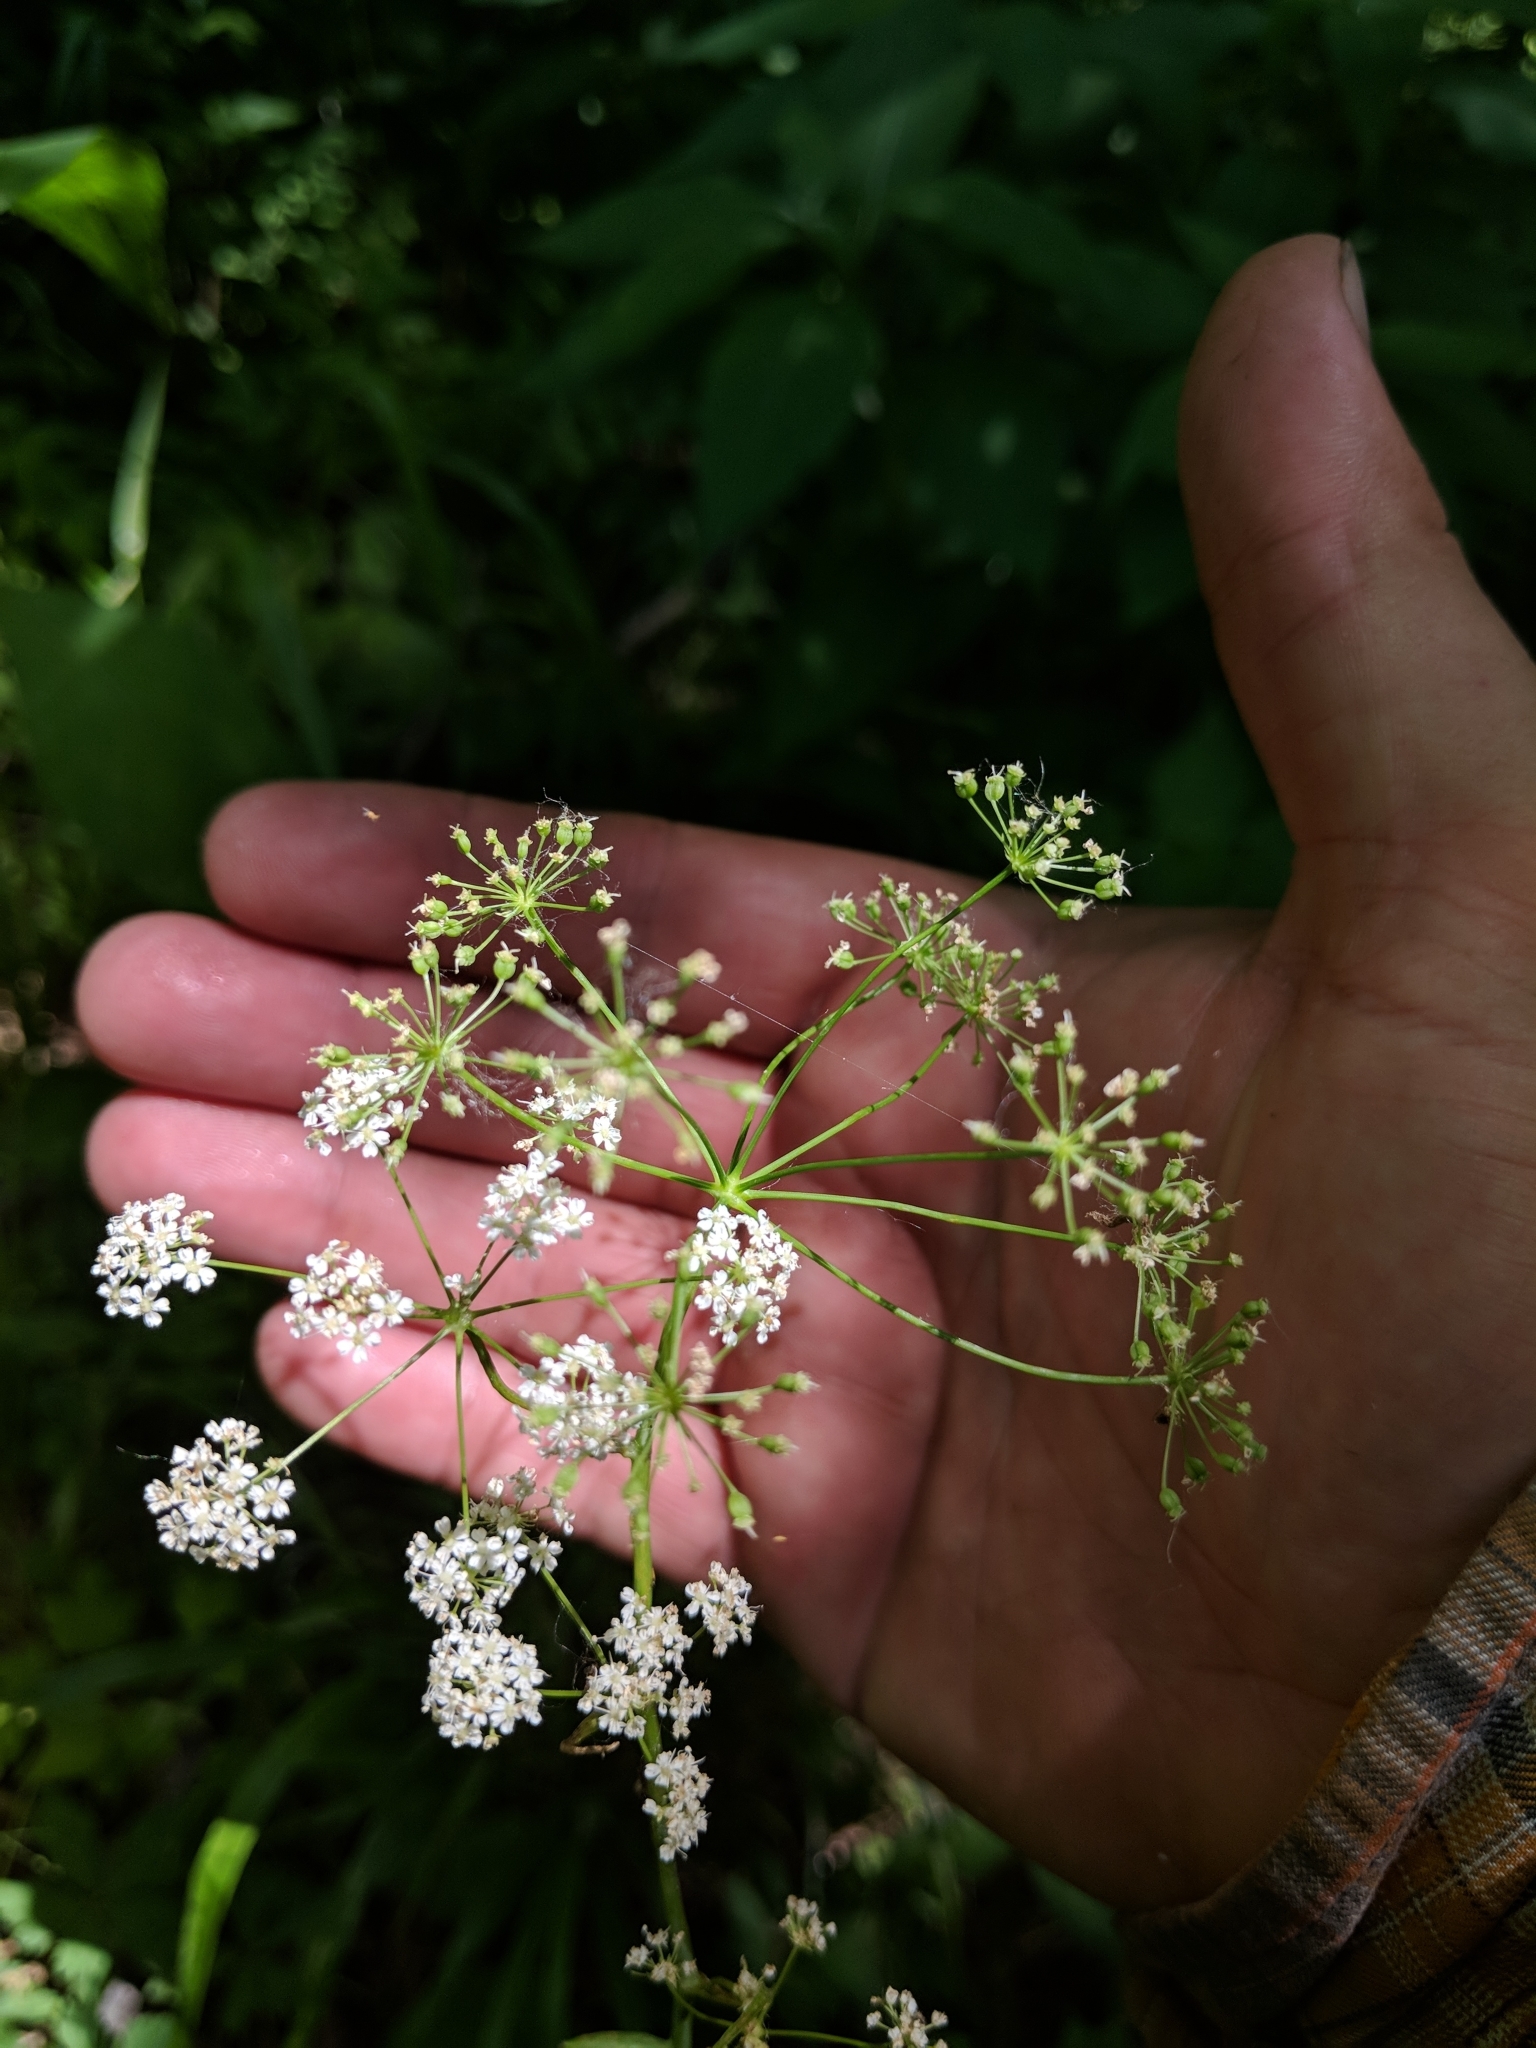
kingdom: Plantae
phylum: Tracheophyta
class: Magnoliopsida
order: Apiales
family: Apiaceae
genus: Perideridia
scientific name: Perideridia americana
